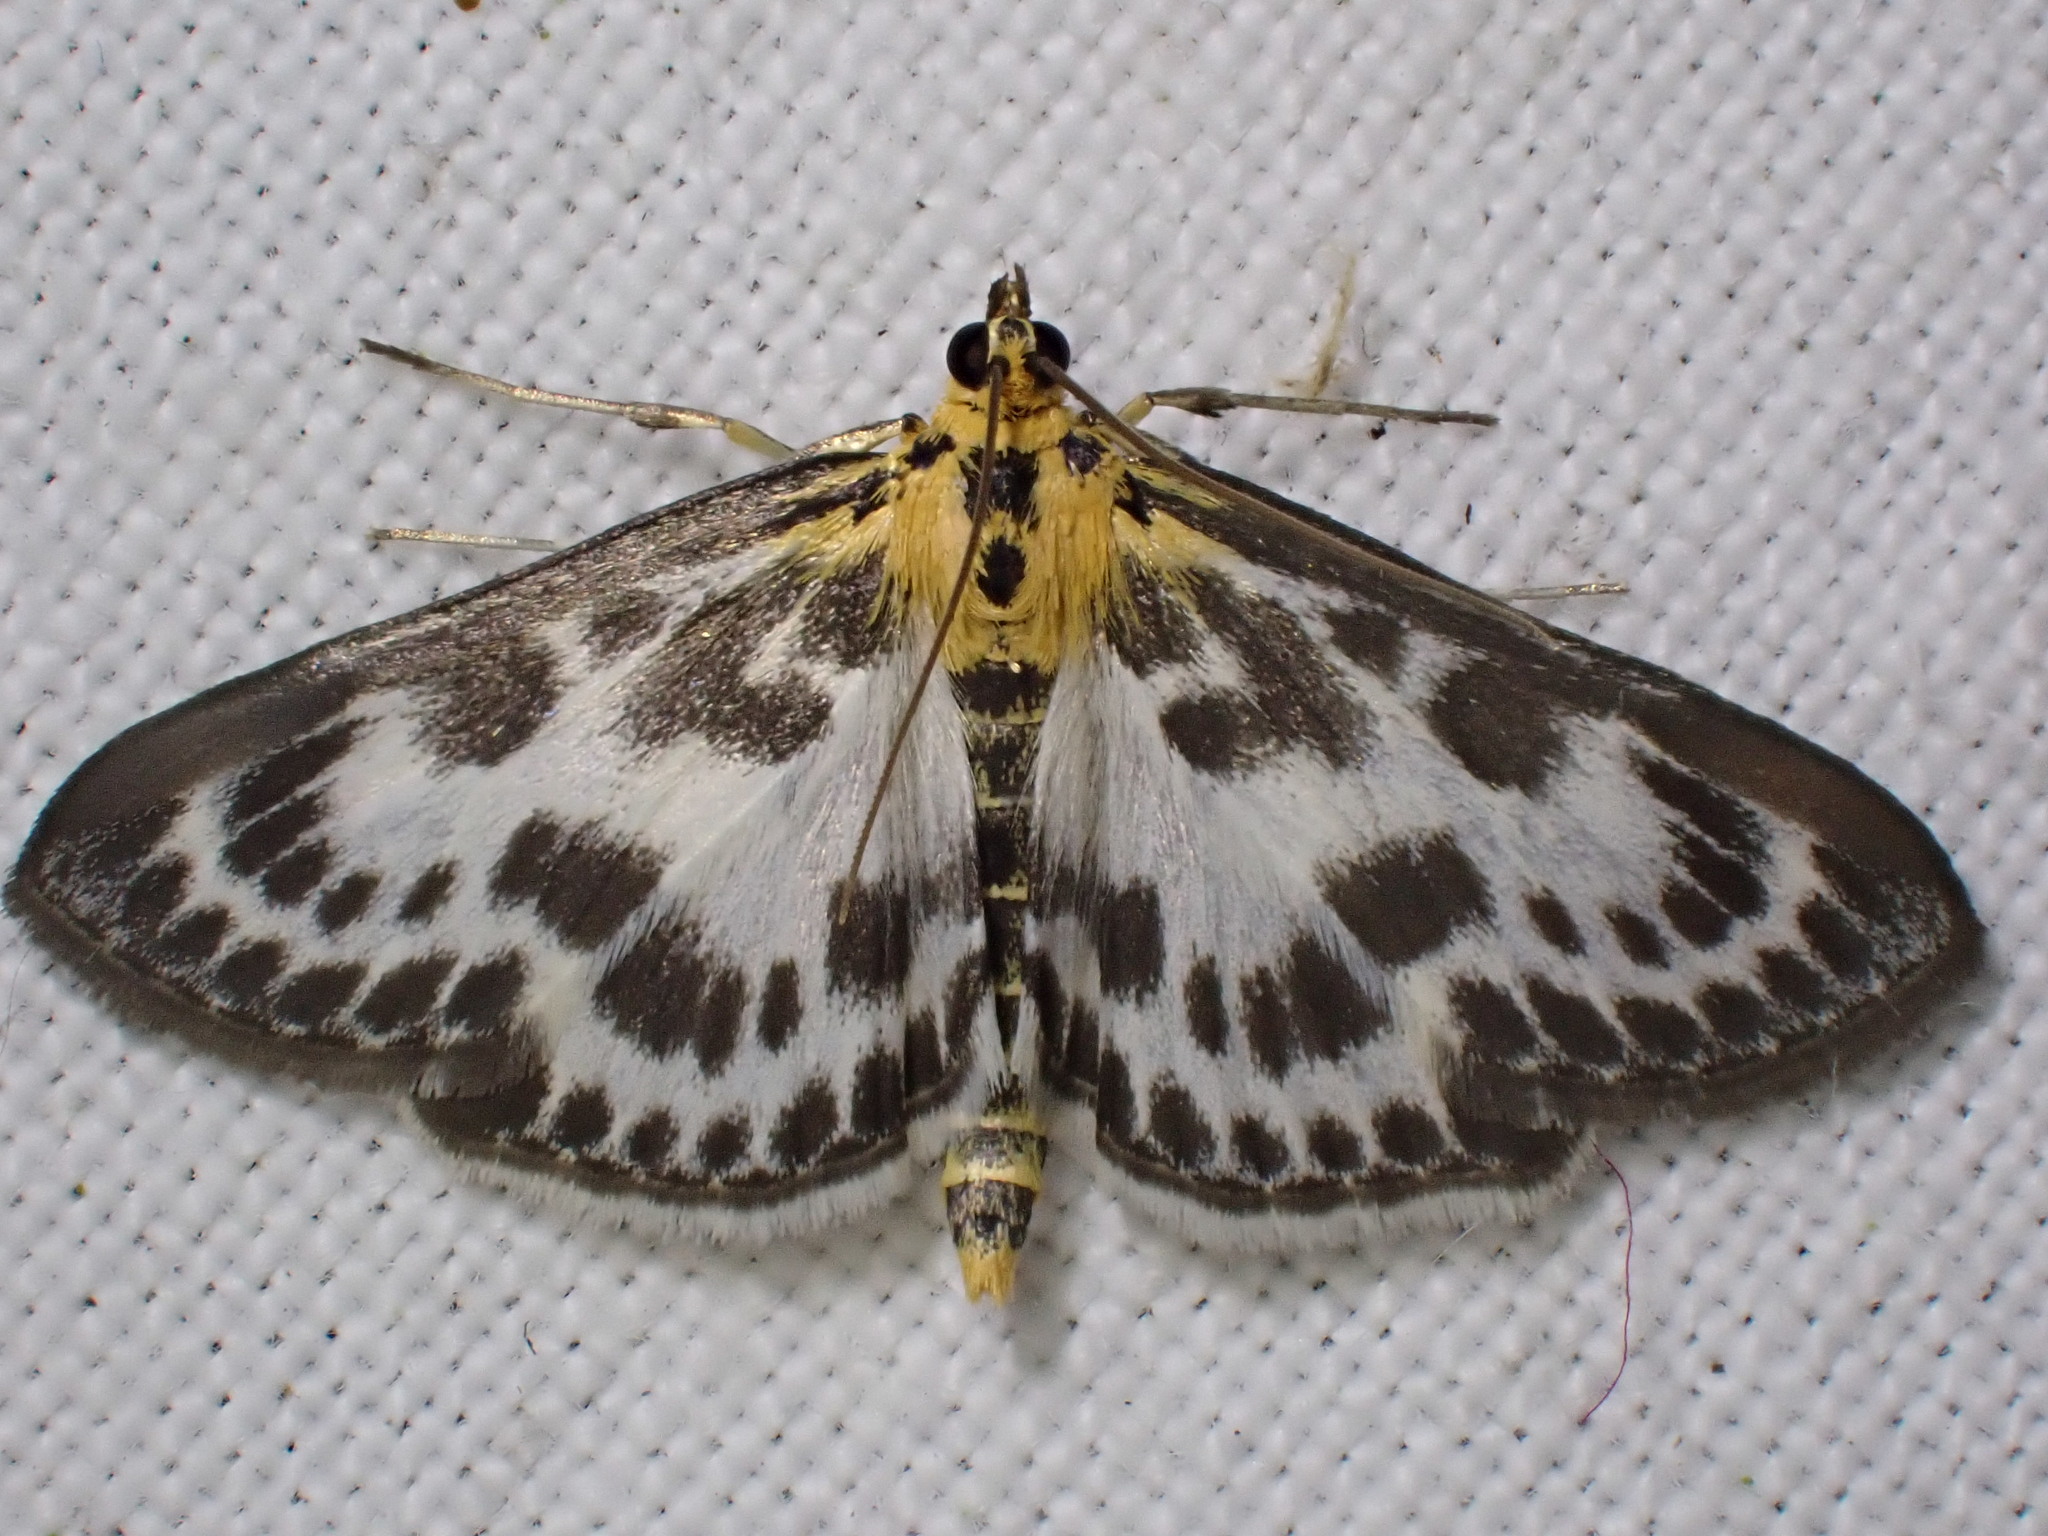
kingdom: Animalia
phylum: Arthropoda
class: Insecta
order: Lepidoptera
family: Crambidae
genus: Anania
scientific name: Anania hortulata
